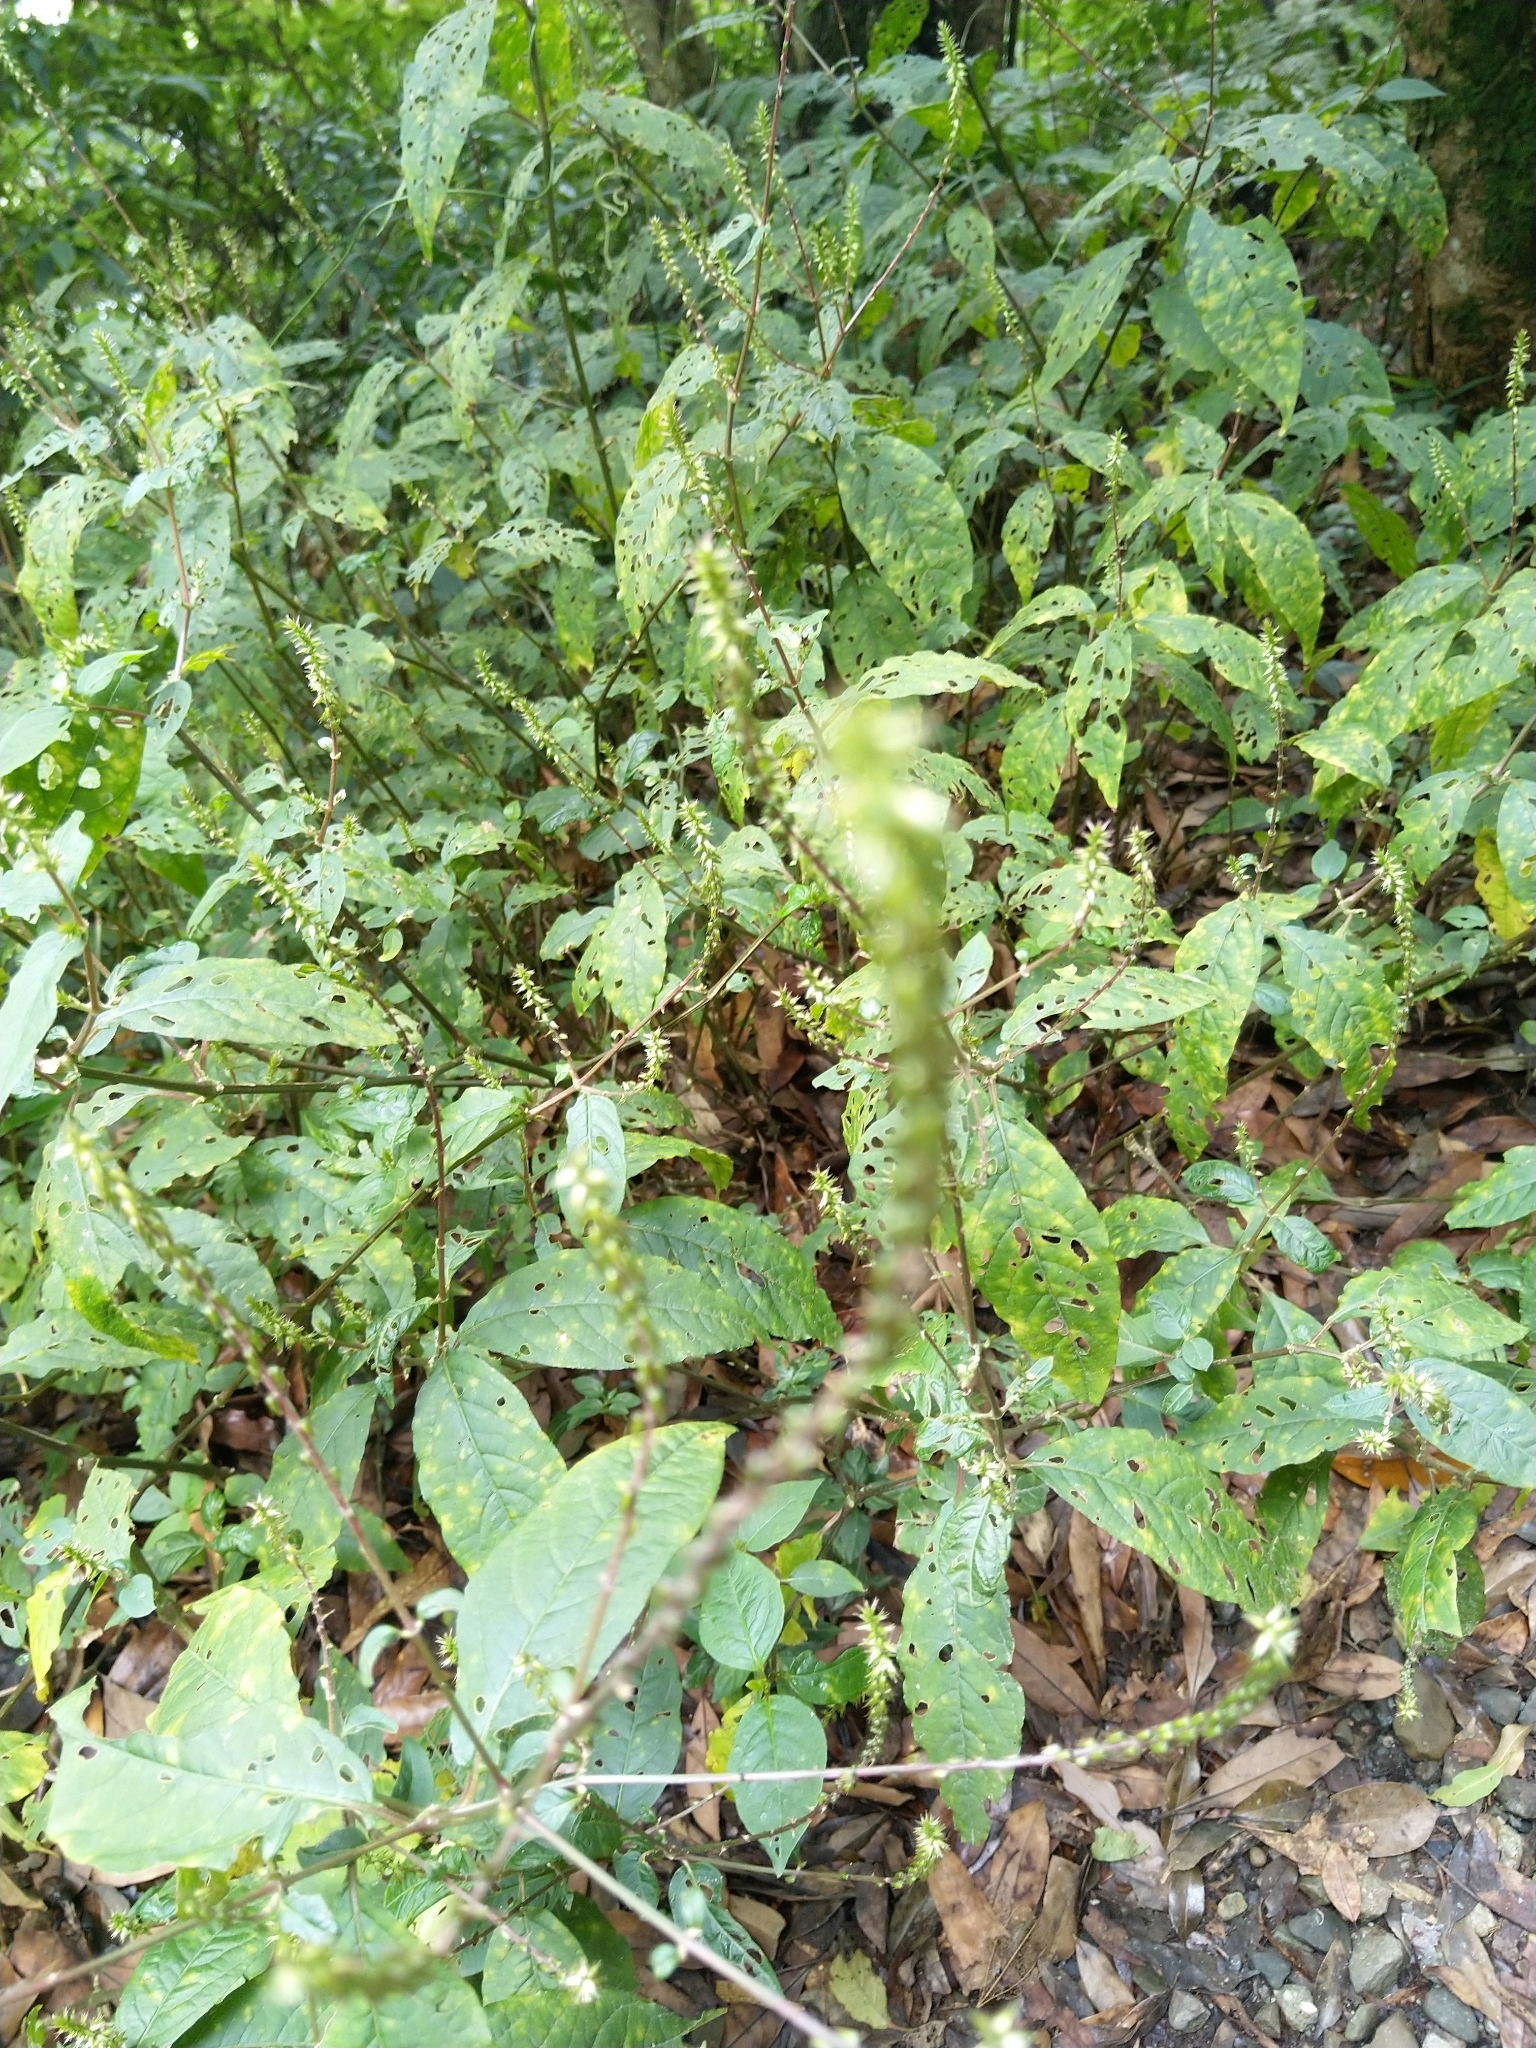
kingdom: Plantae
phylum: Tracheophyta
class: Magnoliopsida
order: Caryophyllales
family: Amaranthaceae
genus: Achyranthes
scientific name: Achyranthes aspera
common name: Devil's horsewhip
